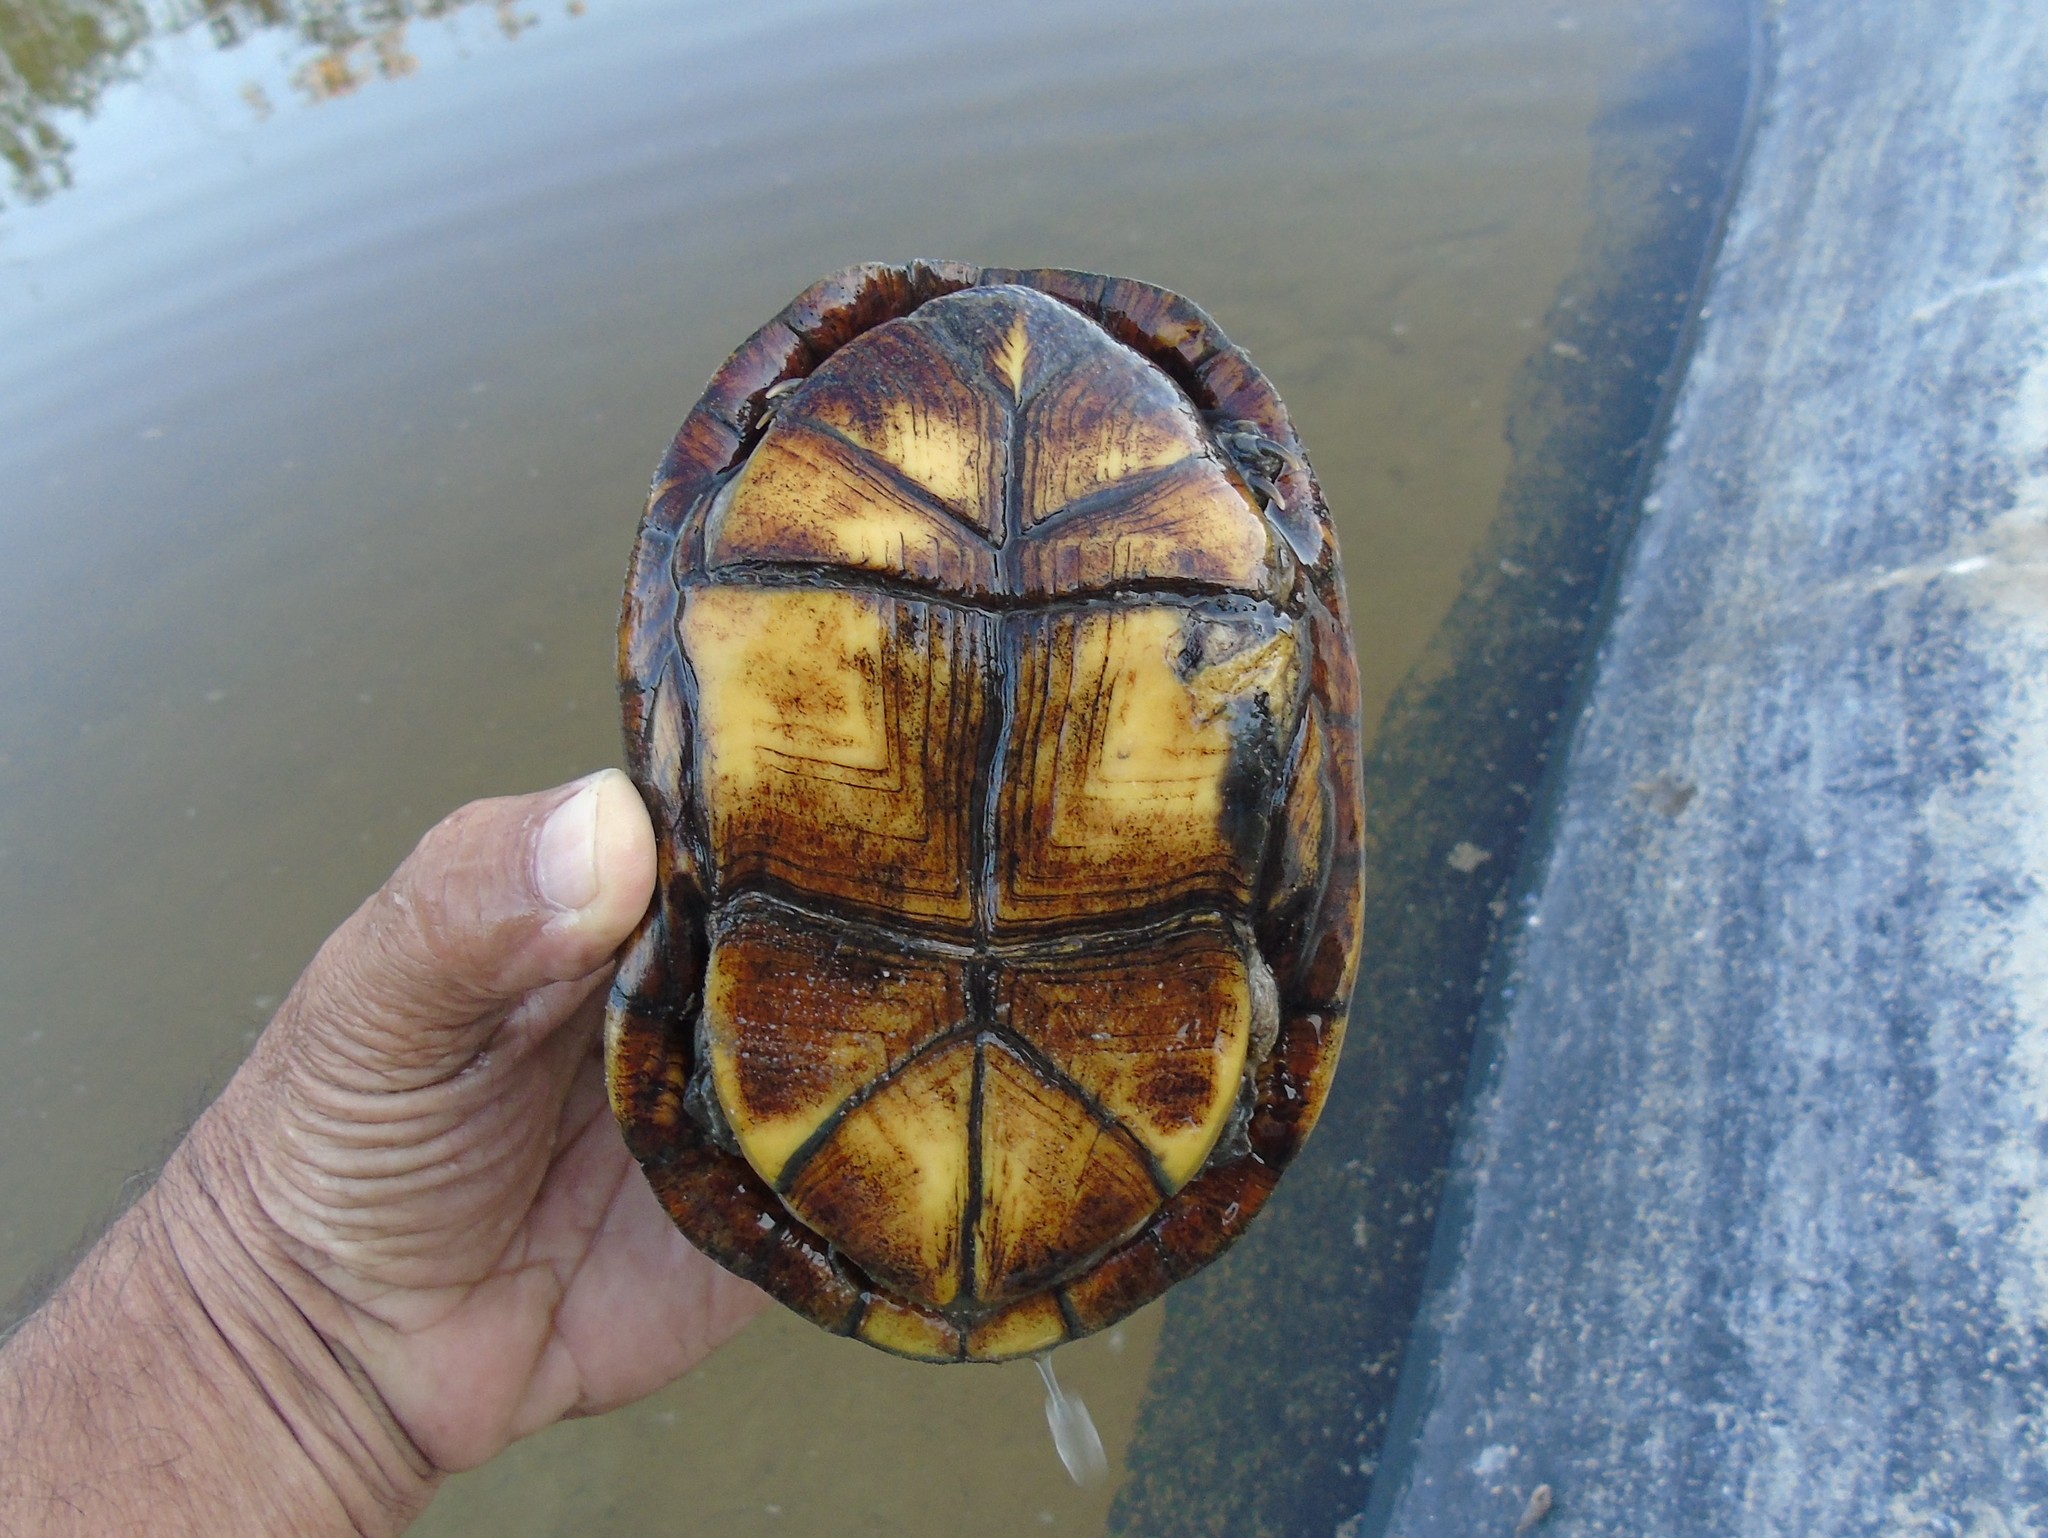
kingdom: Animalia
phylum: Chordata
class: Testudines
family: Kinosternidae
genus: Kinosternon
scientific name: Kinosternon integrum
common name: Mexican mud turtle
